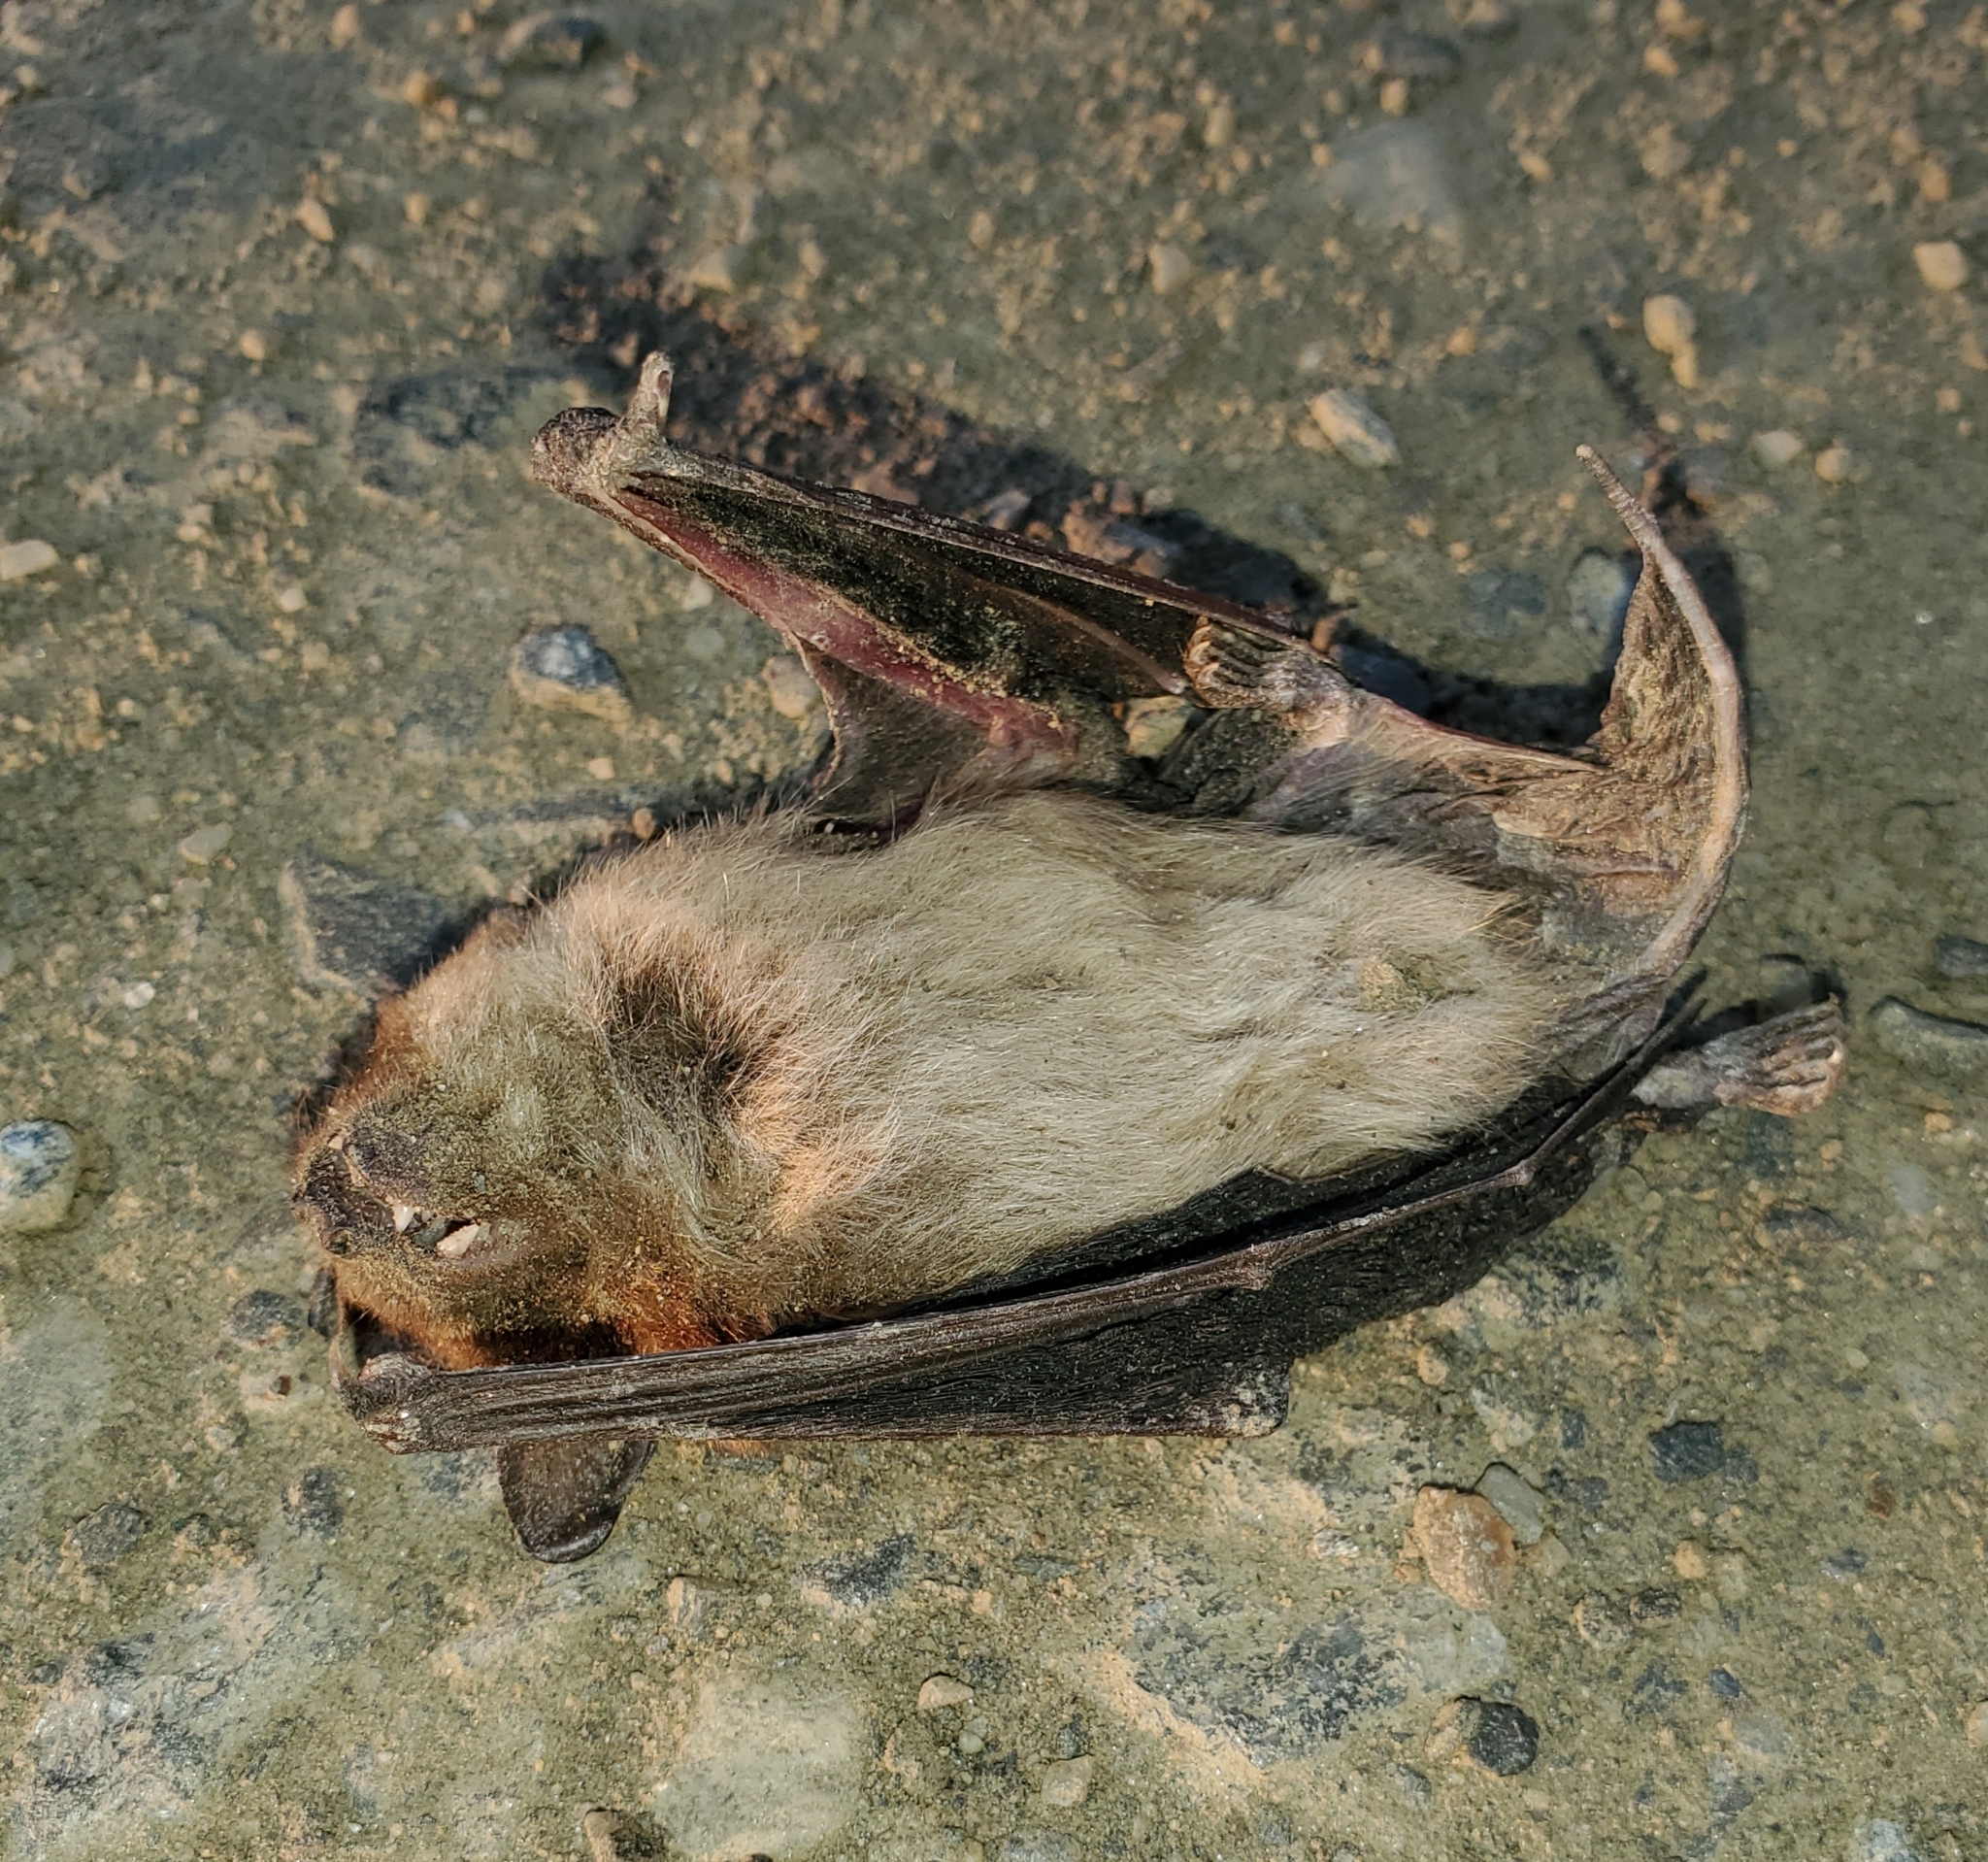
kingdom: Animalia
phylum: Chordata
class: Mammalia
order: Chiroptera
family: Vespertilionidae
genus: Eptesicus
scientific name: Eptesicus fuscus
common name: Big brown bat
